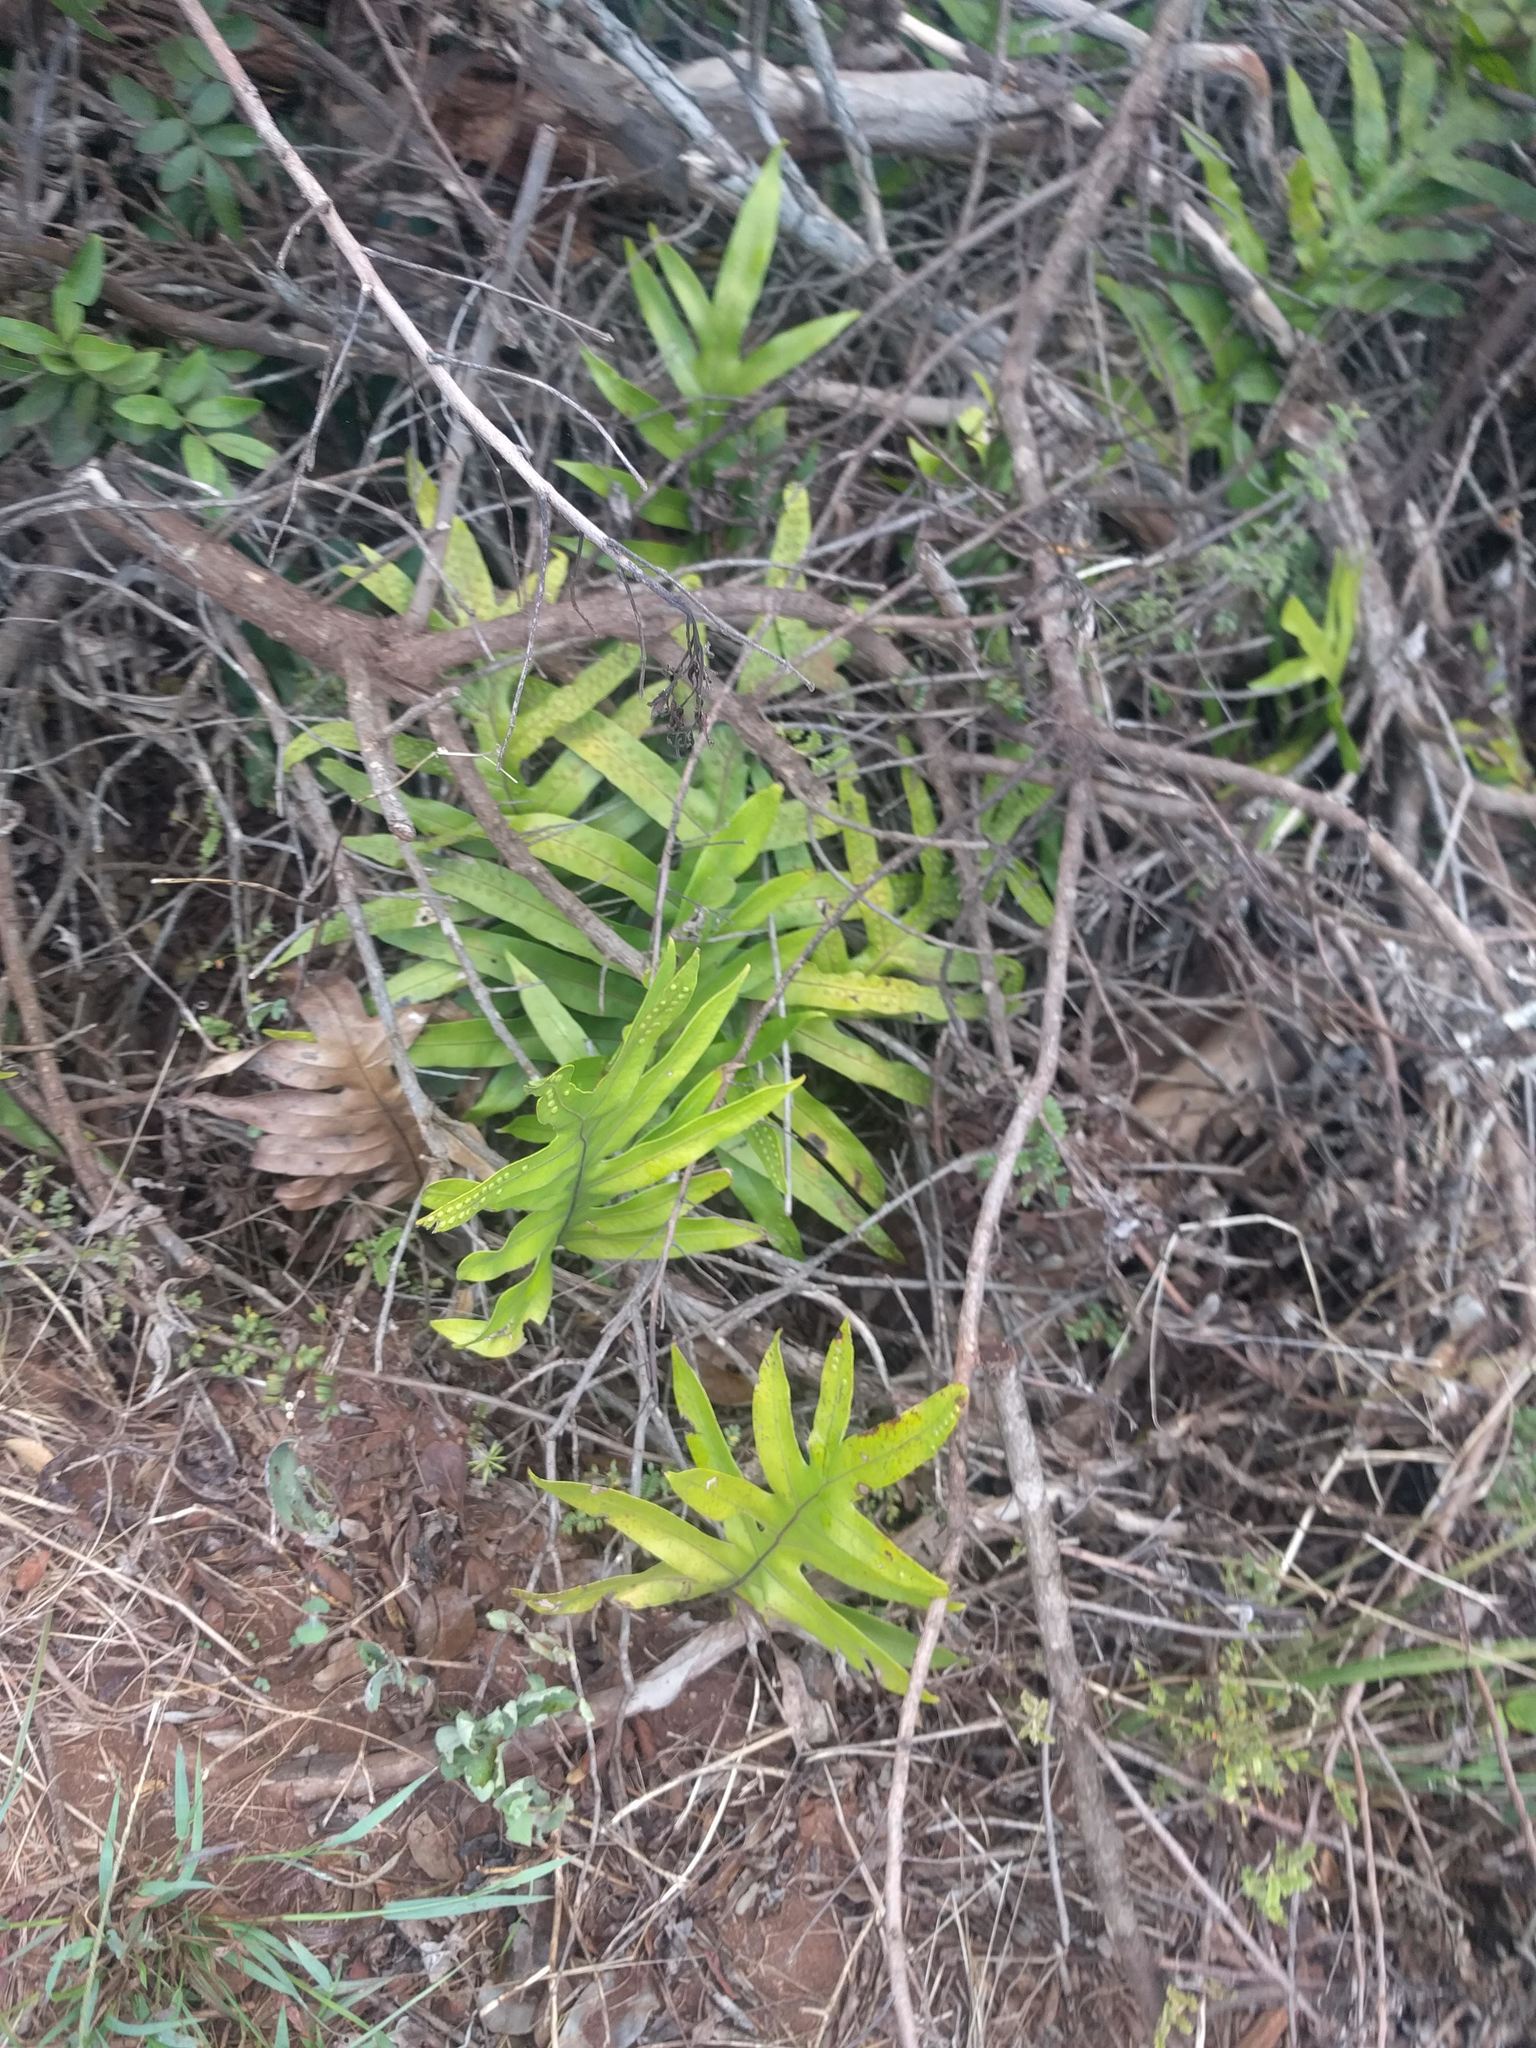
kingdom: Plantae
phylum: Tracheophyta
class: Polypodiopsida
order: Polypodiales
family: Polypodiaceae
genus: Microsorum
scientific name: Microsorum grossum
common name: Musk fern
